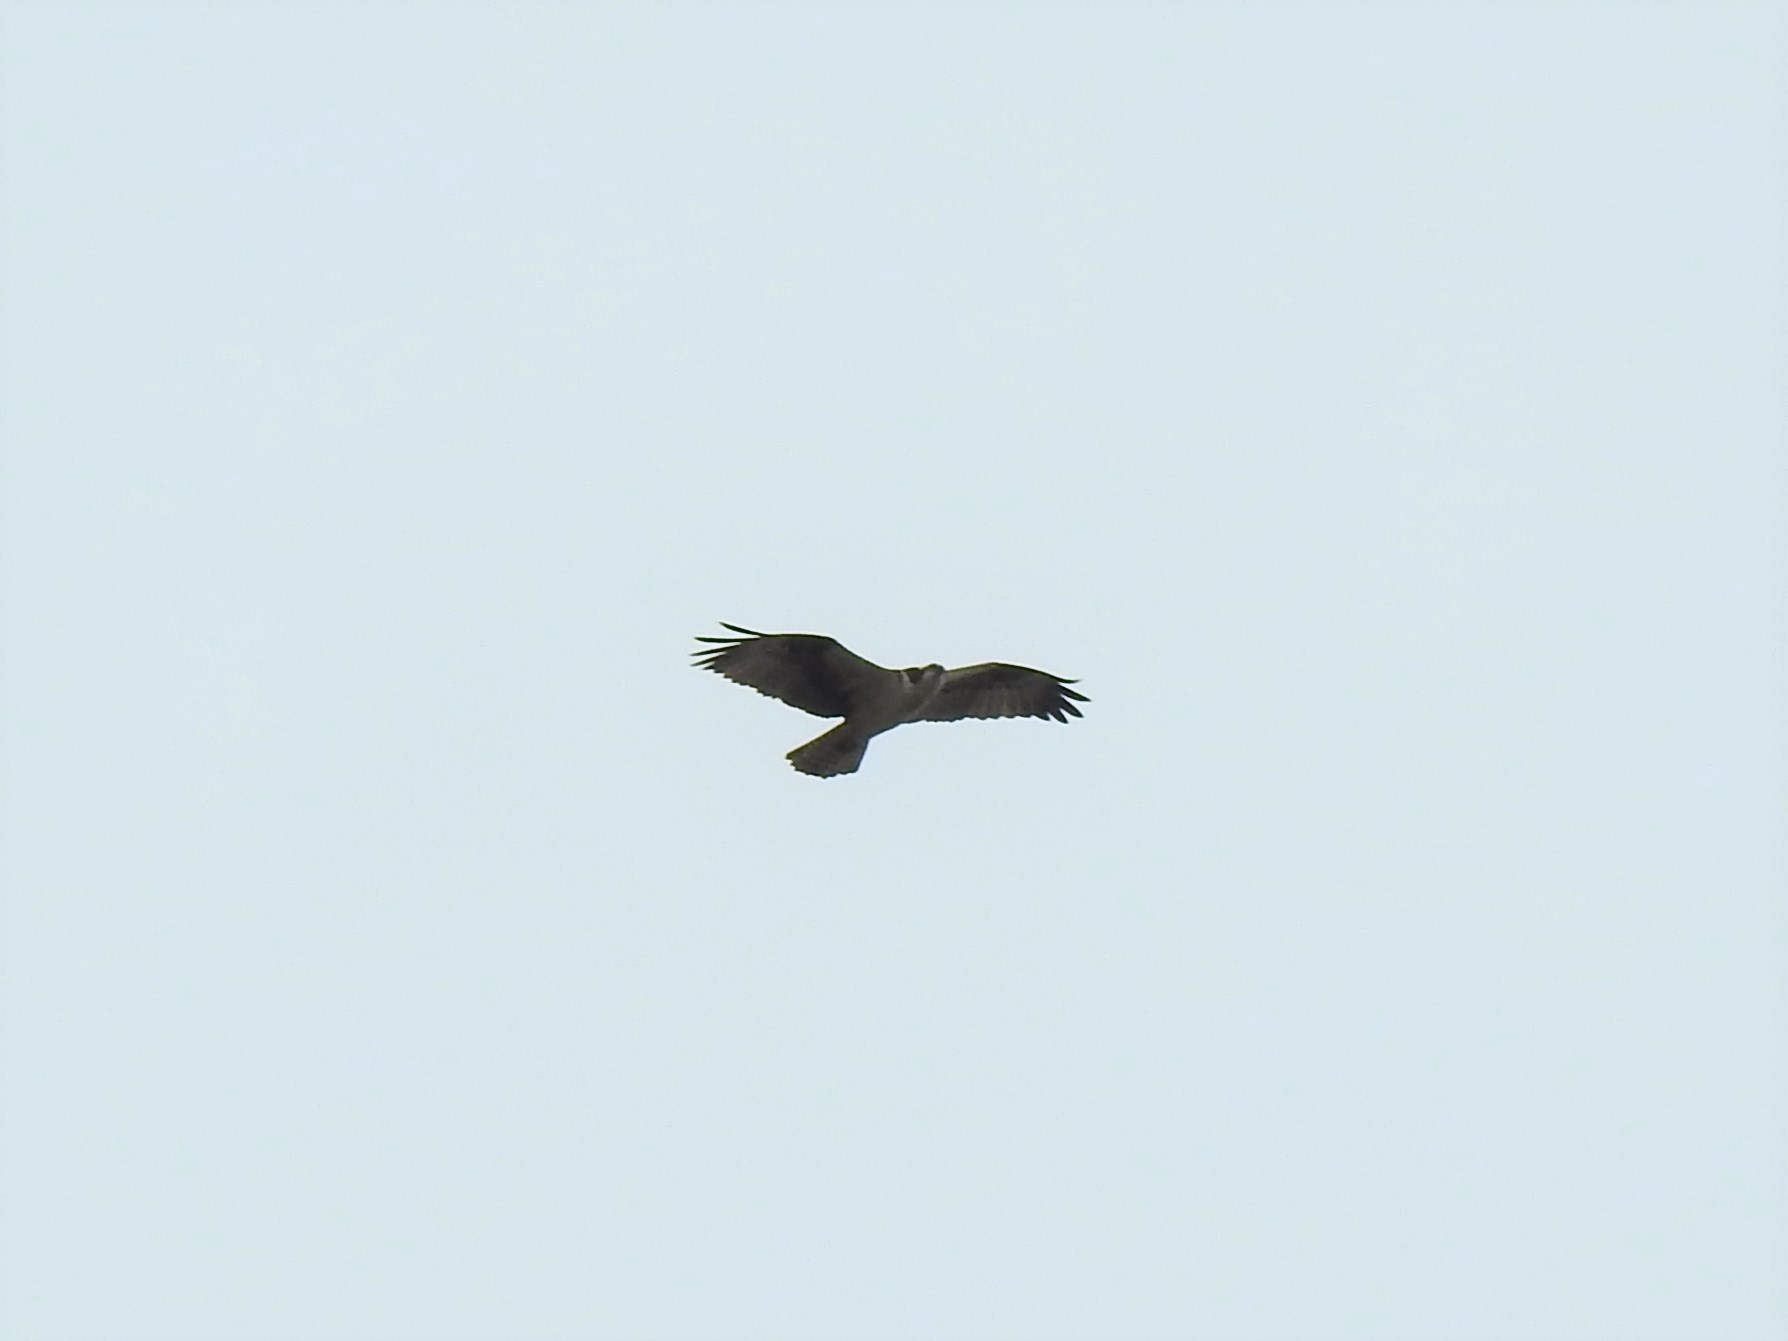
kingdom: Animalia
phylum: Chordata
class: Aves
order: Accipitriformes
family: Pandionidae
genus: Pandion
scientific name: Pandion haliaetus
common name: Osprey
